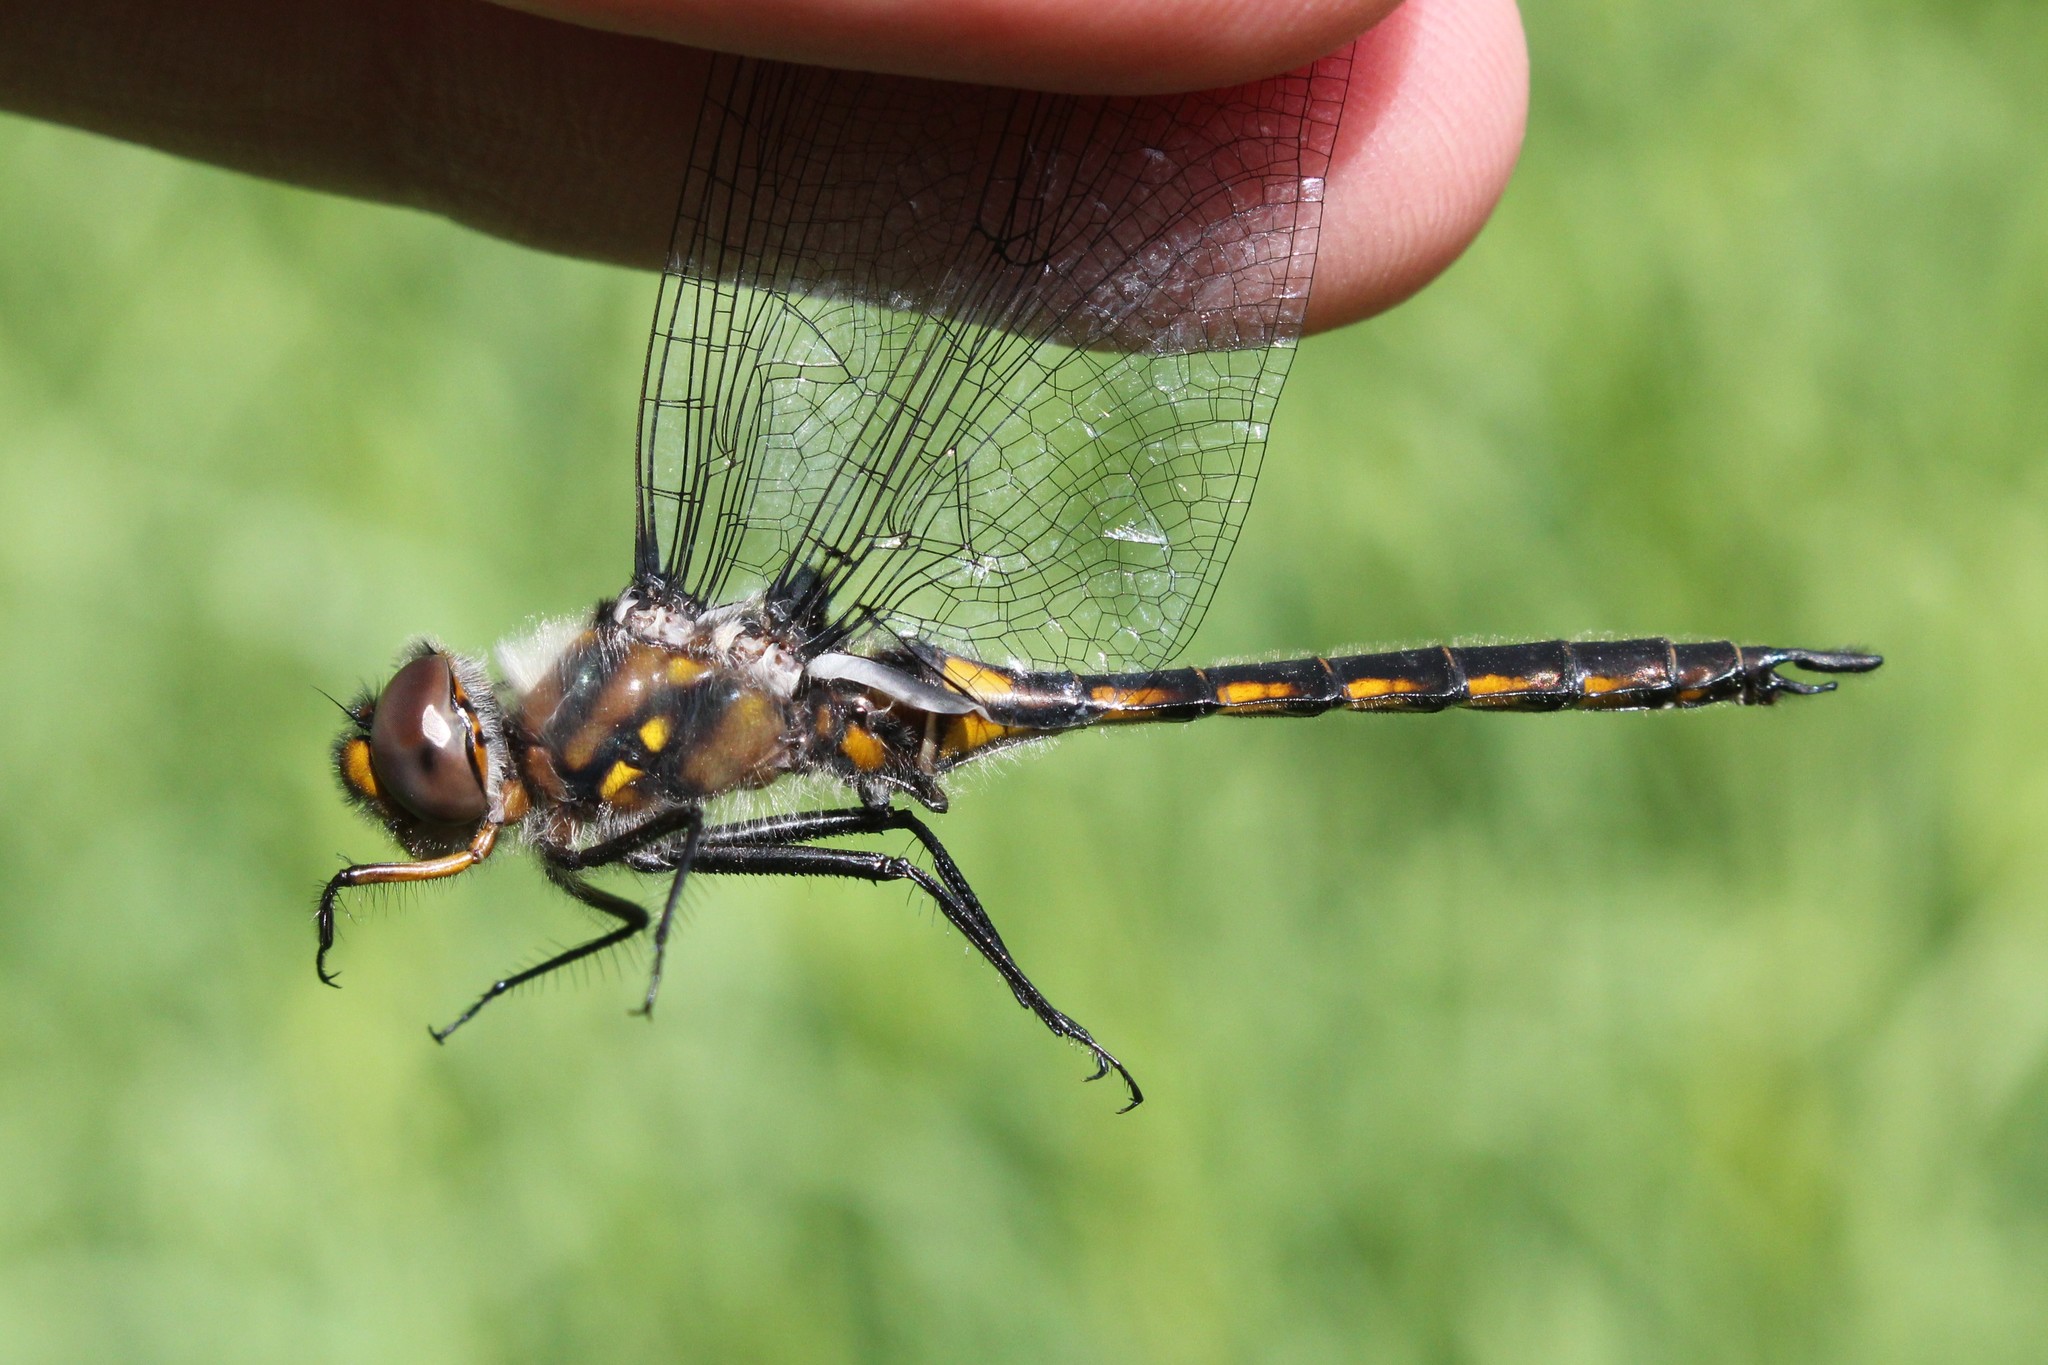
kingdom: Animalia
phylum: Arthropoda
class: Insecta
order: Odonata
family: Corduliidae
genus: Epitheca
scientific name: Epitheca cynosura
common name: Common baskettail
